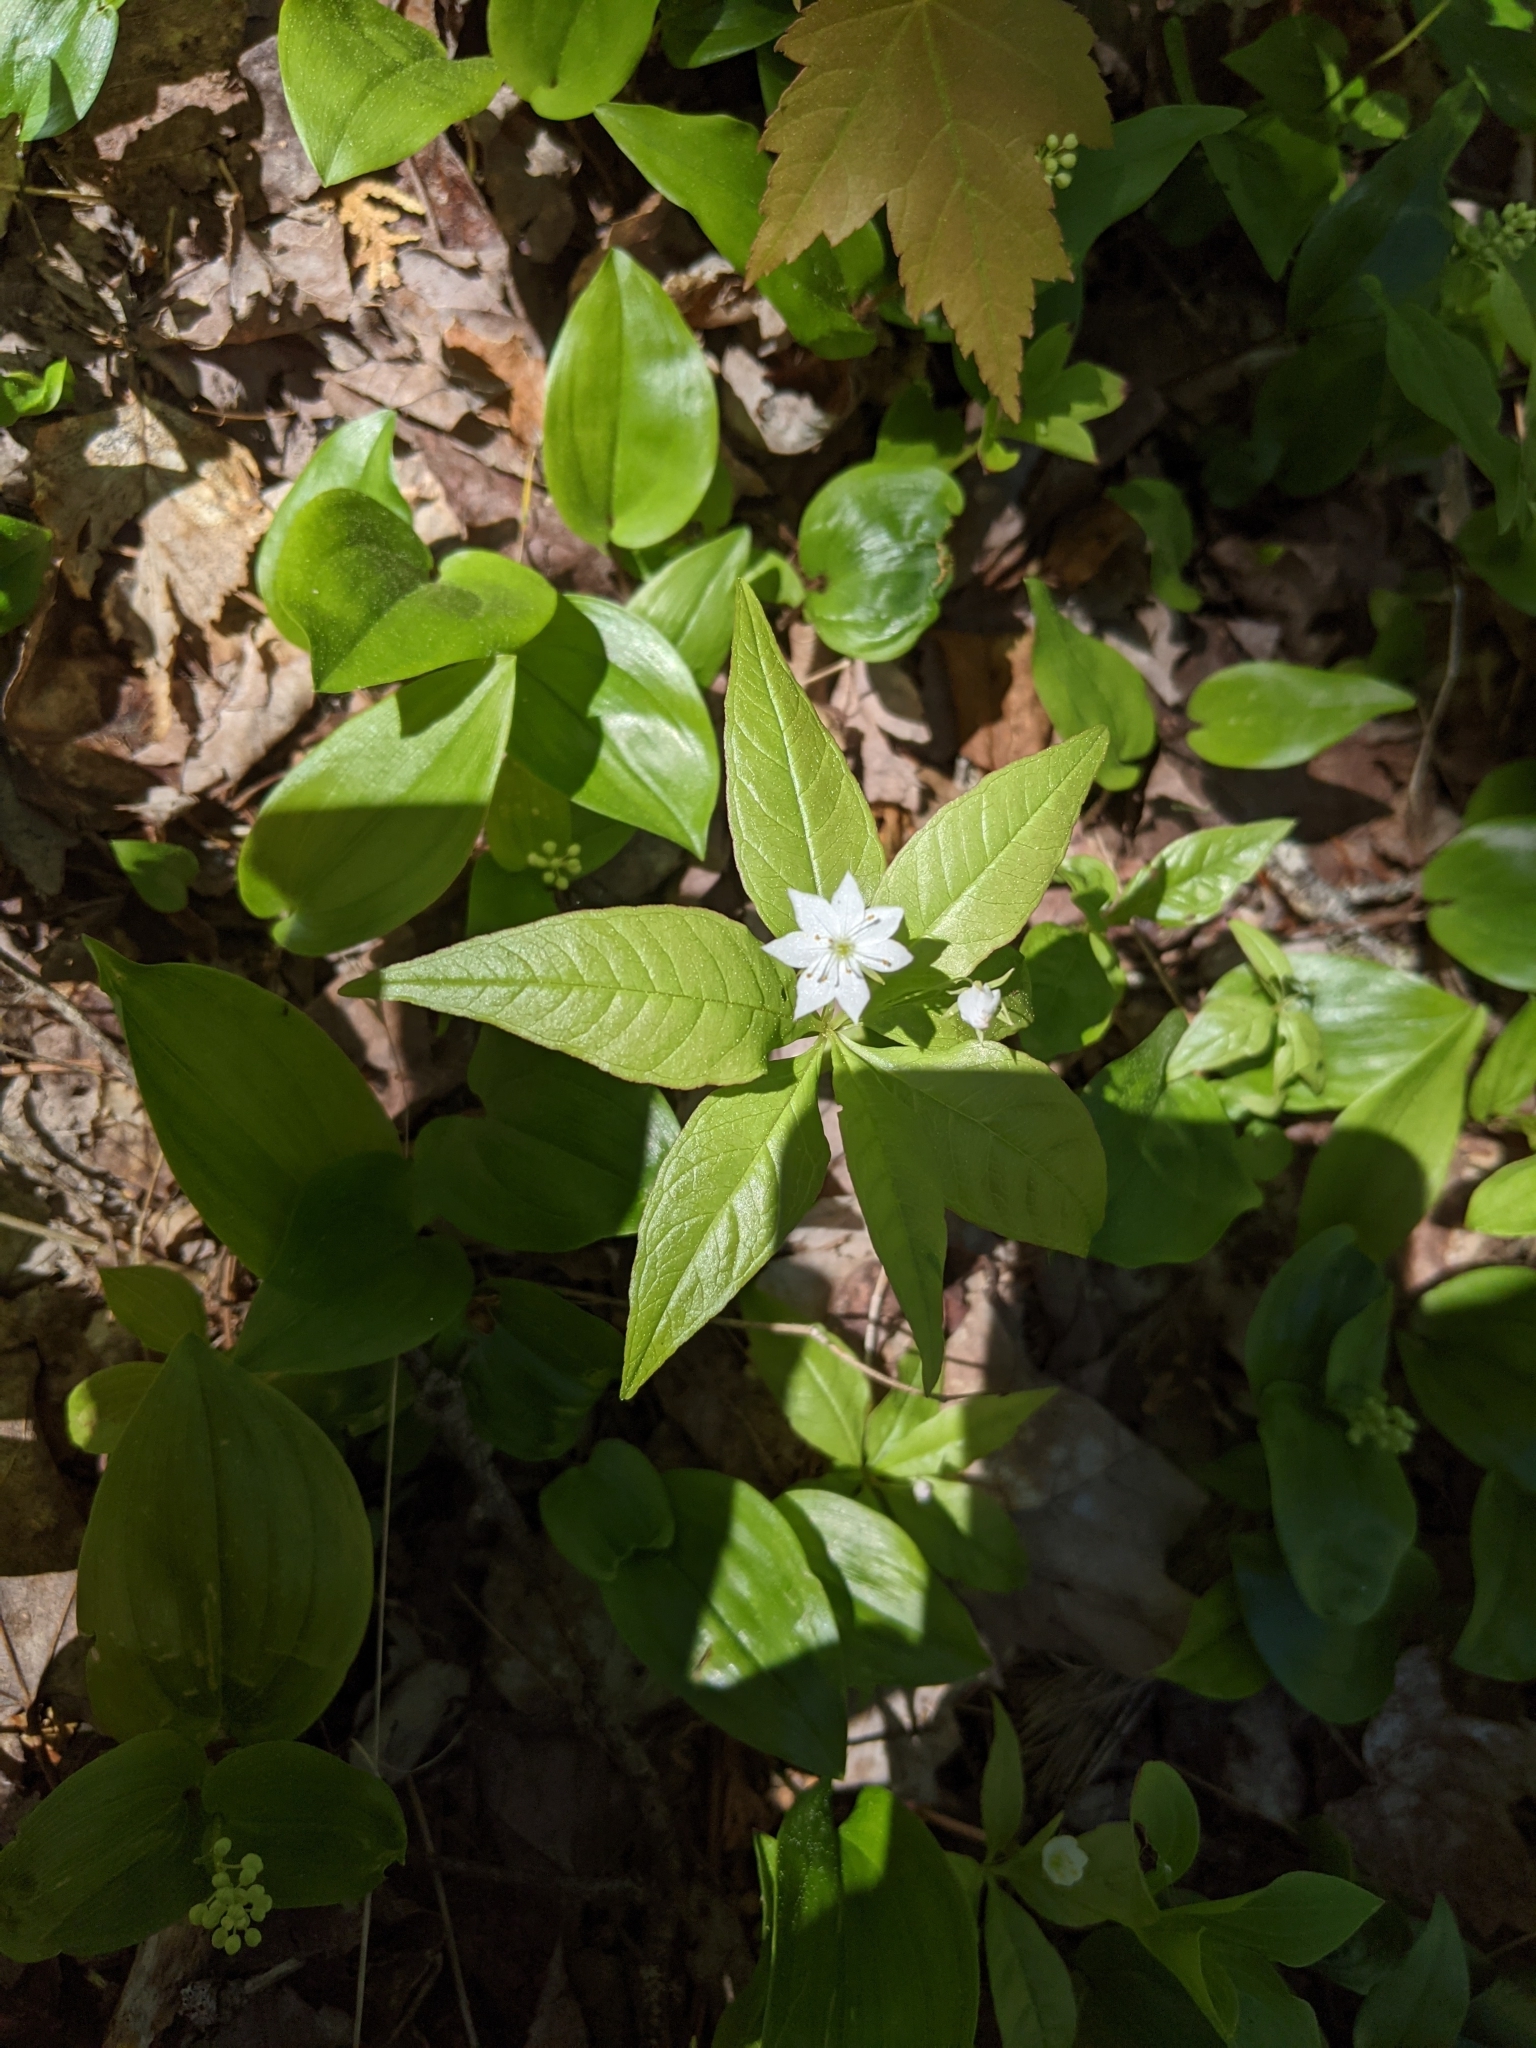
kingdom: Plantae
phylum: Tracheophyta
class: Magnoliopsida
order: Ericales
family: Primulaceae
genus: Lysimachia
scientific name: Lysimachia borealis
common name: American starflower
